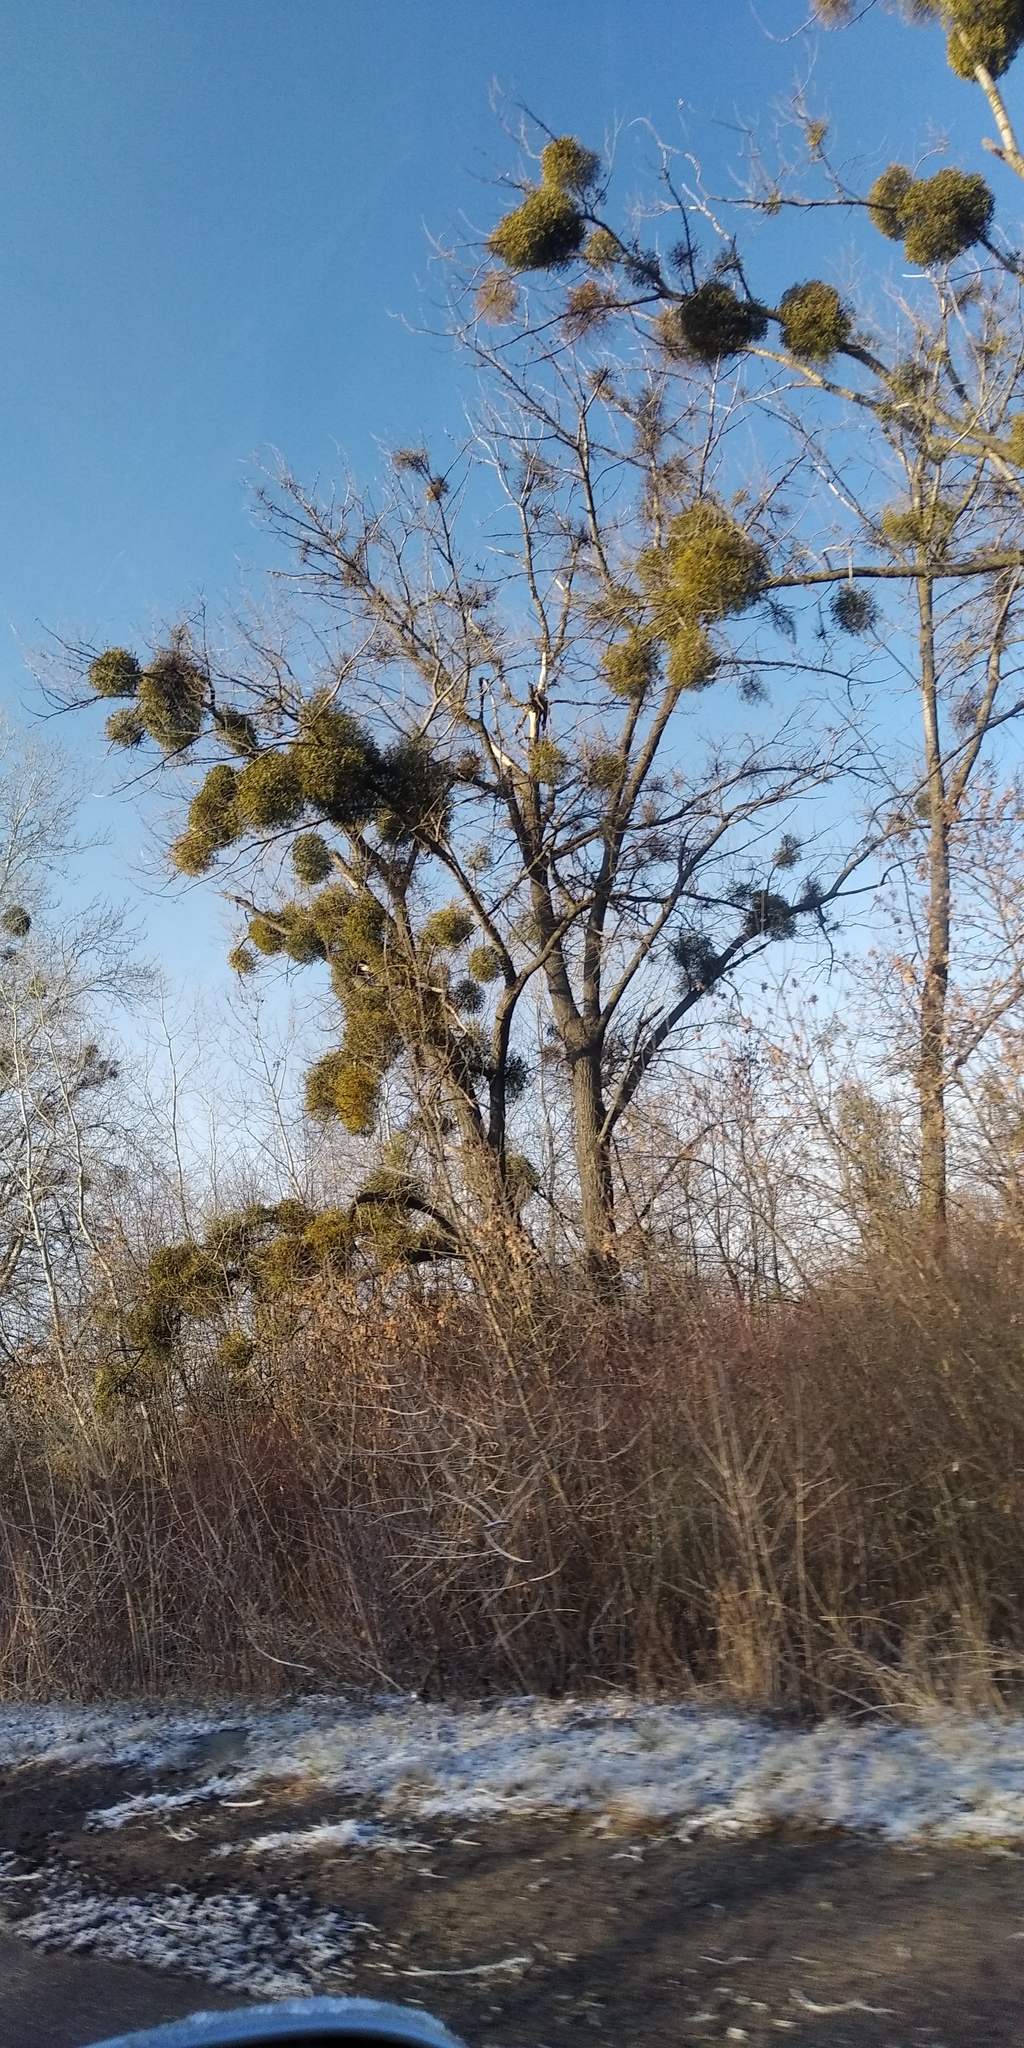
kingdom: Plantae
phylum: Tracheophyta
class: Magnoliopsida
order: Santalales
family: Viscaceae
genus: Viscum
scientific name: Viscum album
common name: Mistletoe
